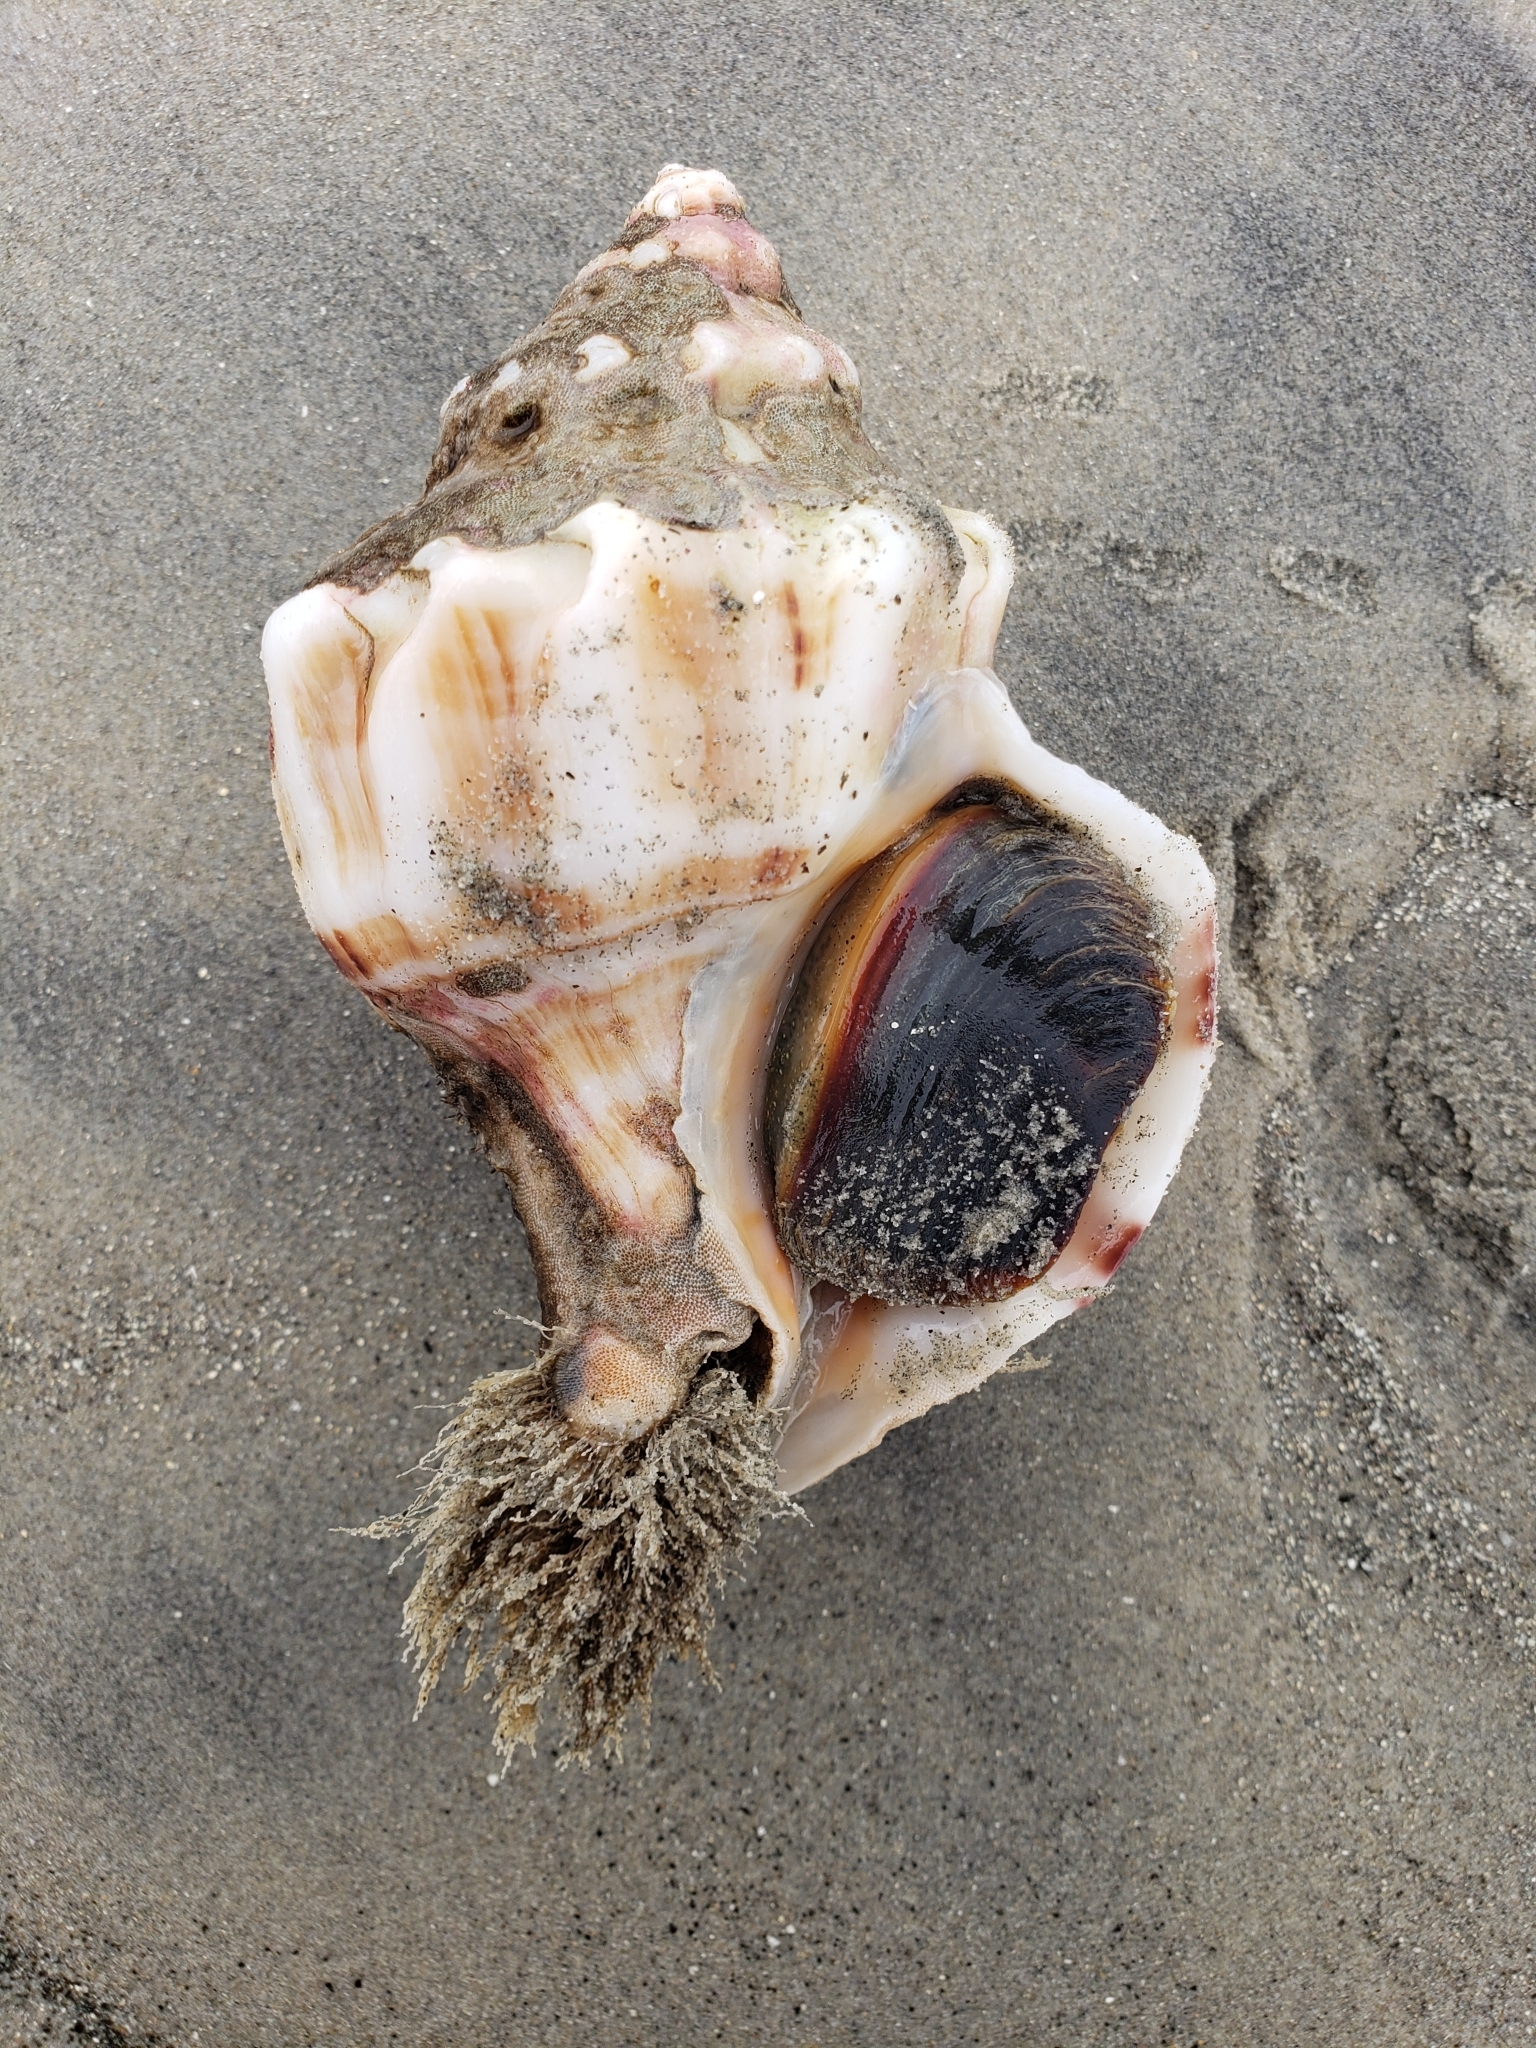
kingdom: Animalia
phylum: Mollusca
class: Gastropoda
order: Neogastropoda
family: Muricidae
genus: Forreria
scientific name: Forreria belcheri
